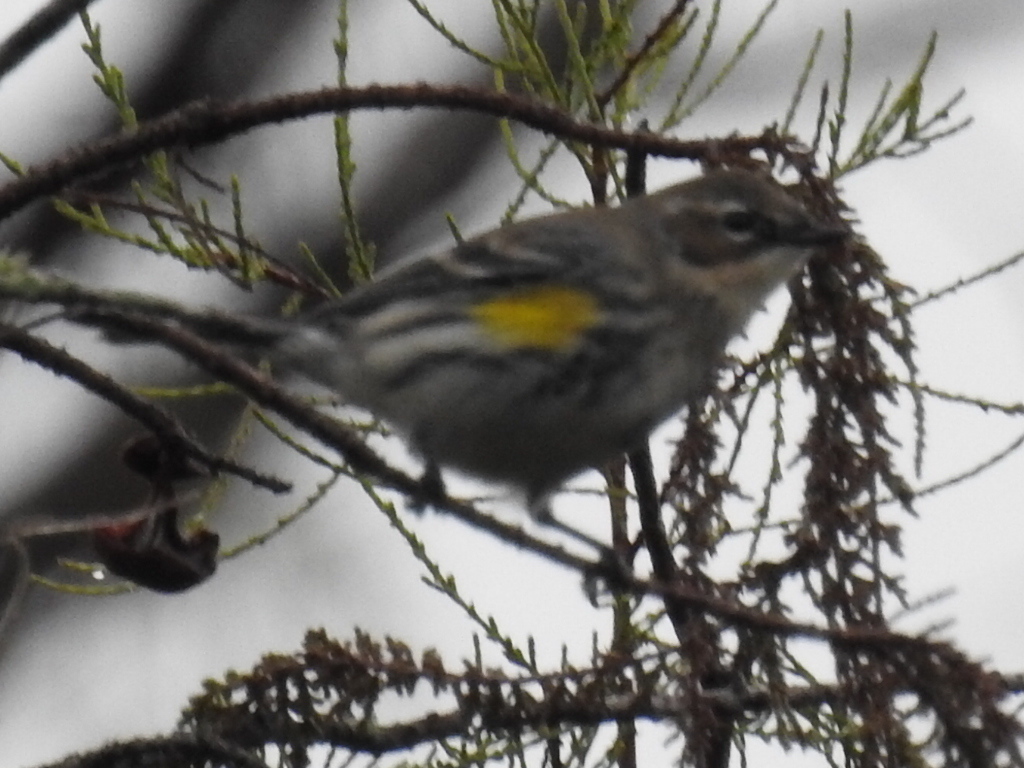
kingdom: Animalia
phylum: Chordata
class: Aves
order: Passeriformes
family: Parulidae
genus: Setophaga
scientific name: Setophaga coronata
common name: Myrtle warbler
